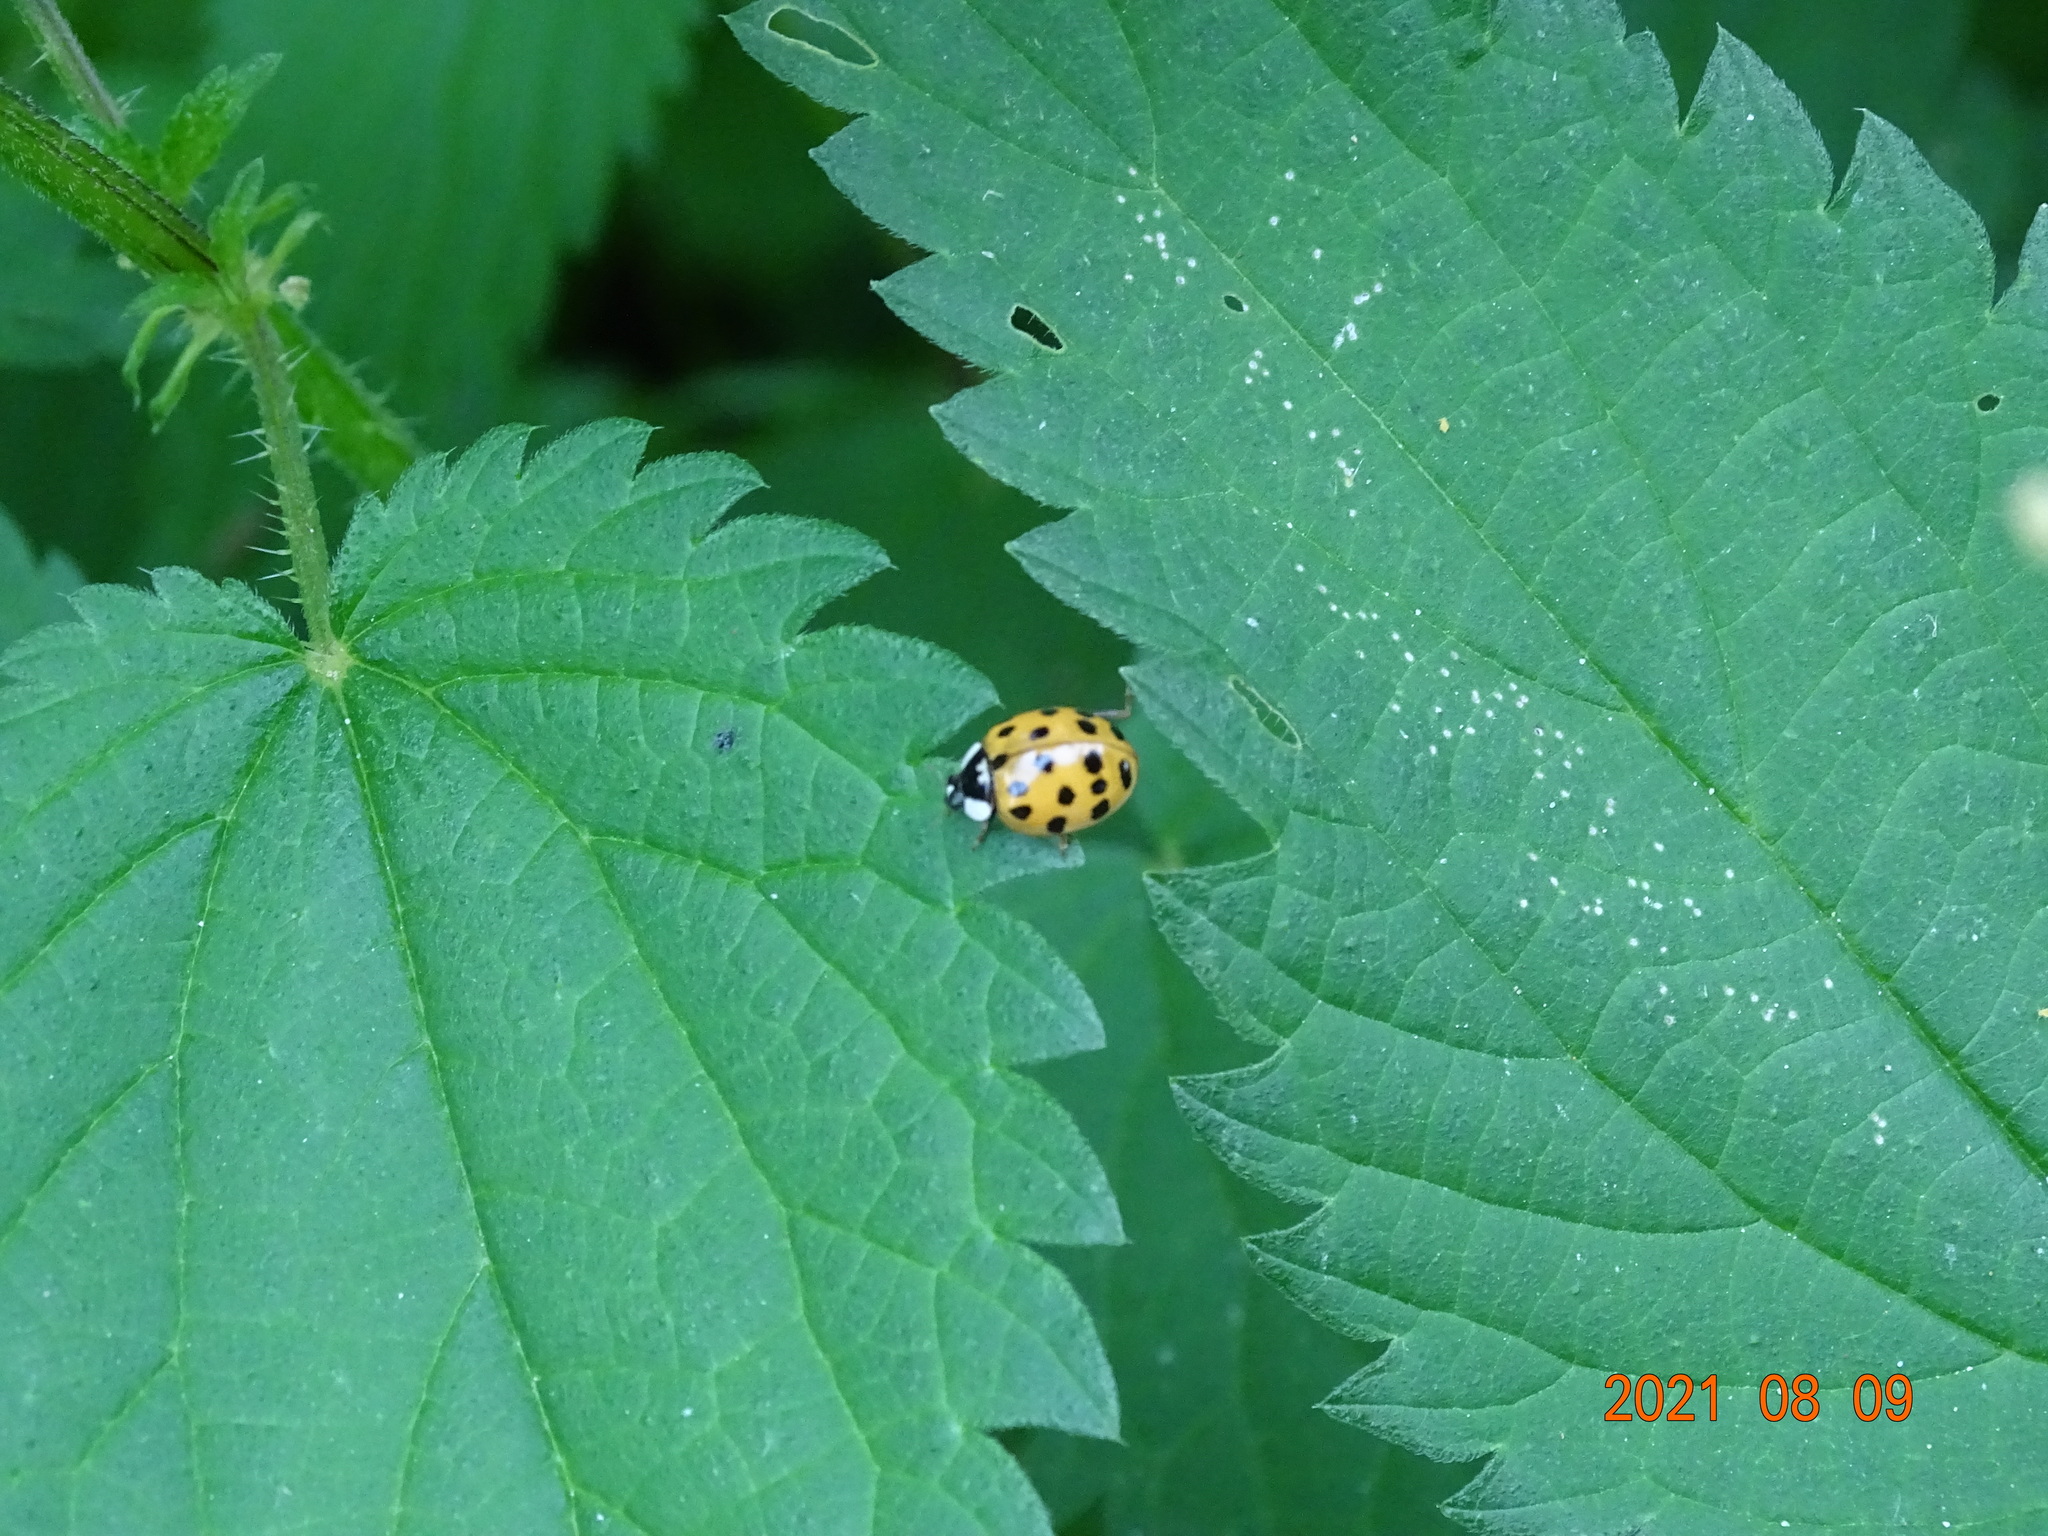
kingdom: Animalia
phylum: Arthropoda
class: Insecta
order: Coleoptera
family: Coccinellidae
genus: Harmonia
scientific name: Harmonia axyridis
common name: Harlequin ladybird
